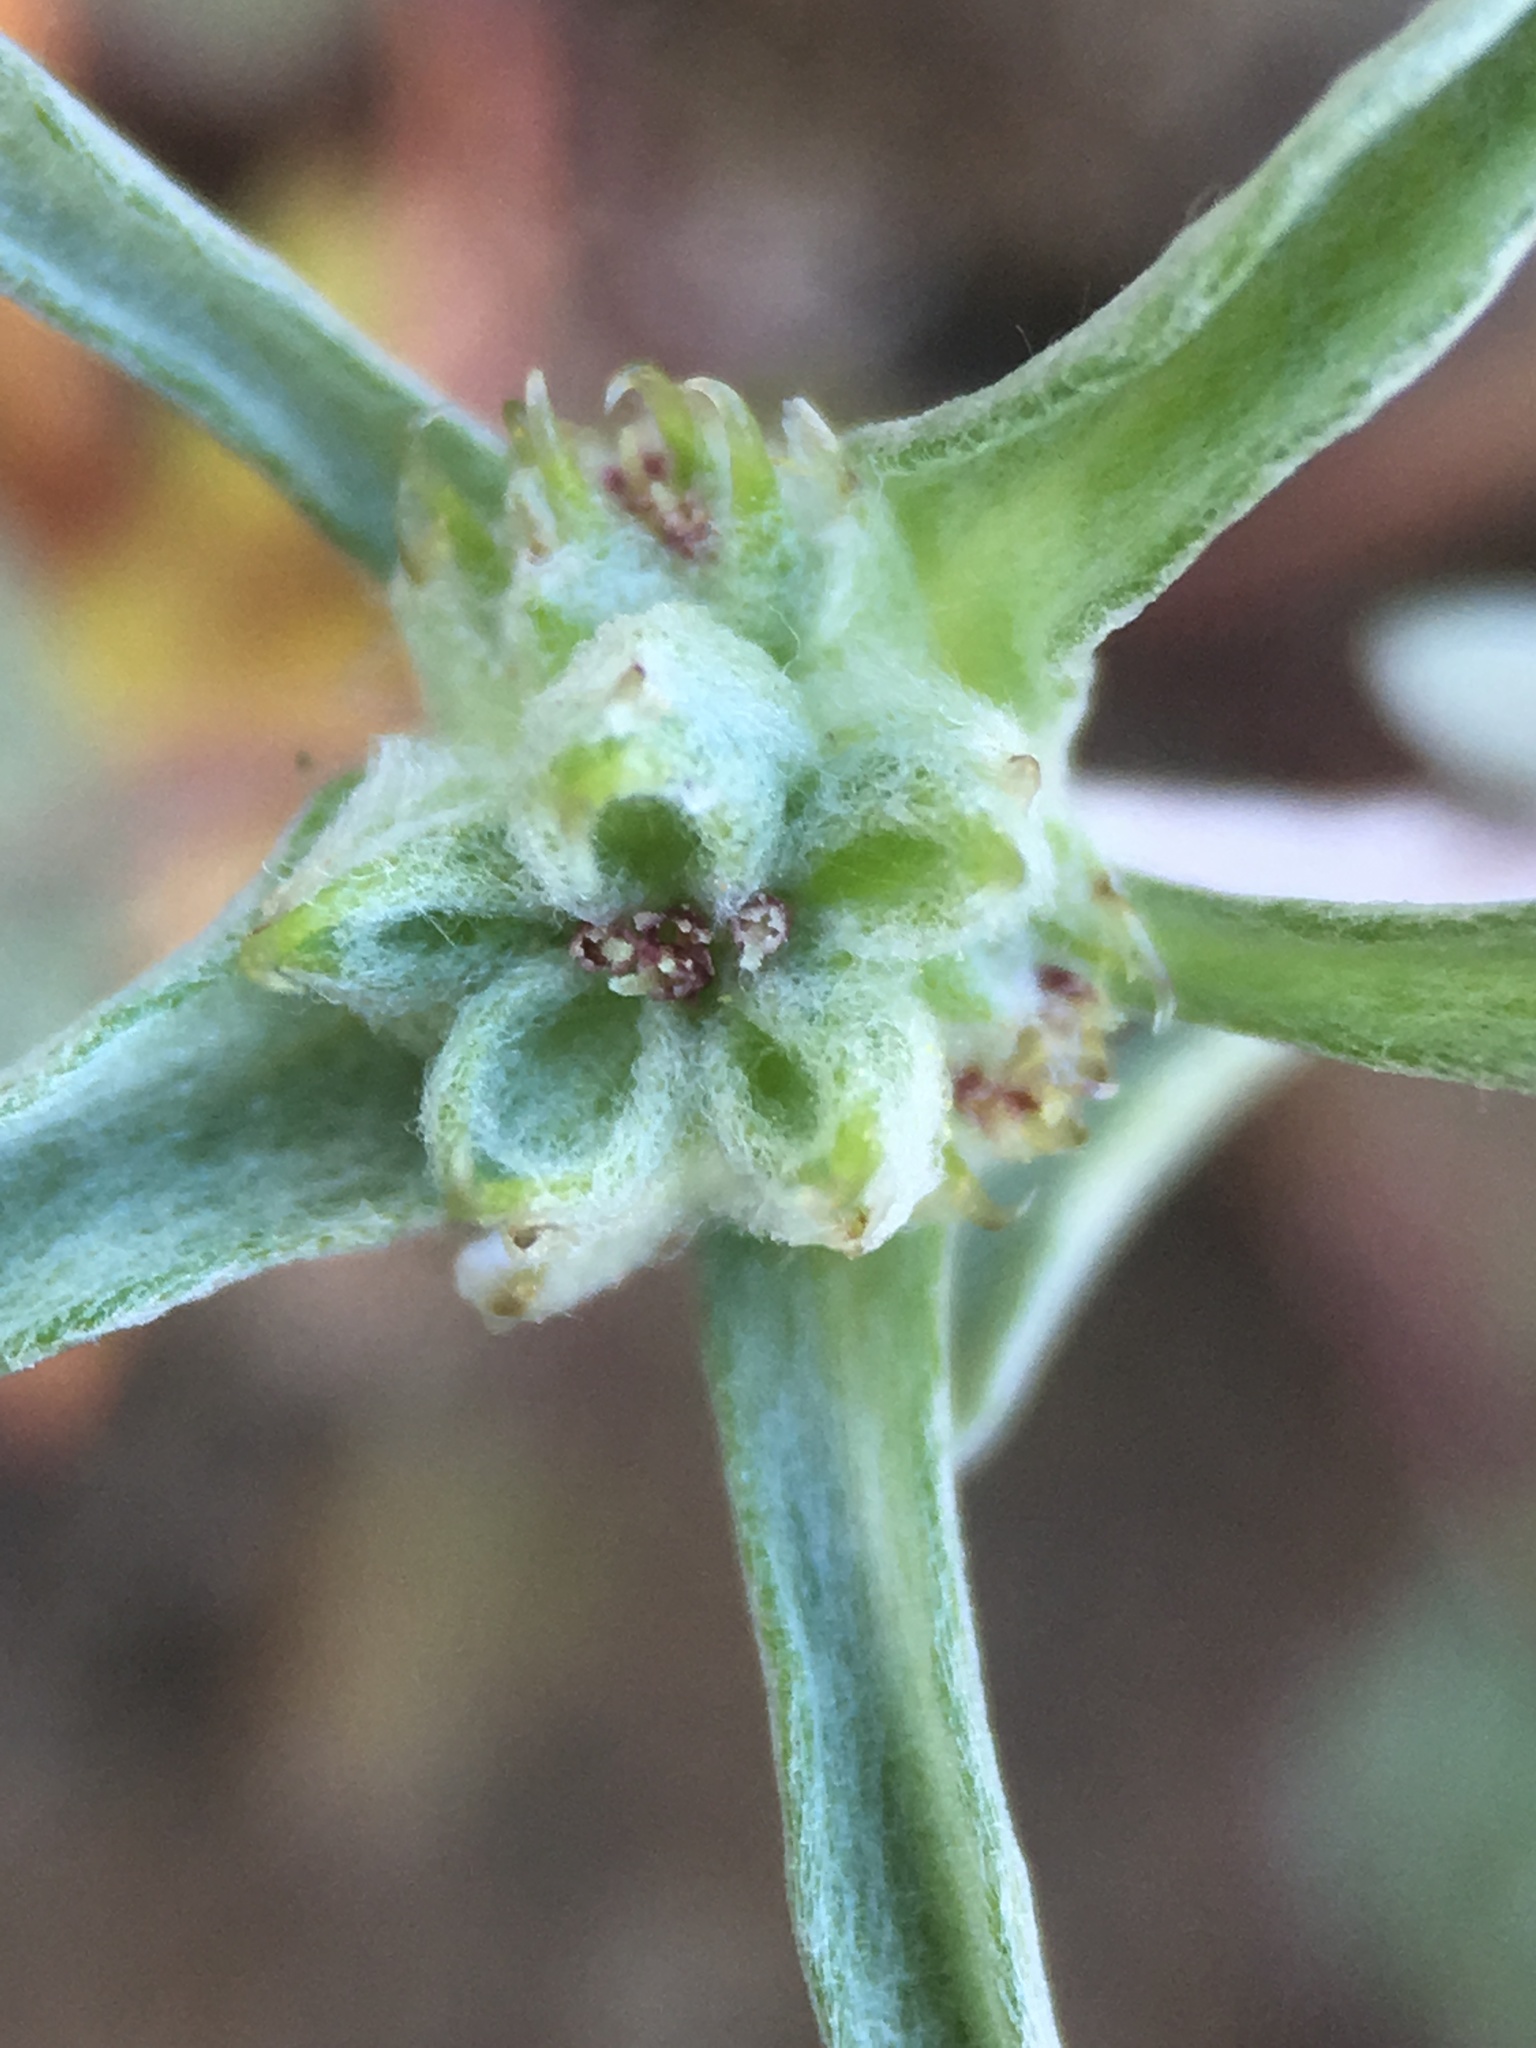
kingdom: Plantae
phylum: Tracheophyta
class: Magnoliopsida
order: Asterales
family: Asteraceae
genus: Ancistrocarphus
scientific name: Ancistrocarphus filagineus
